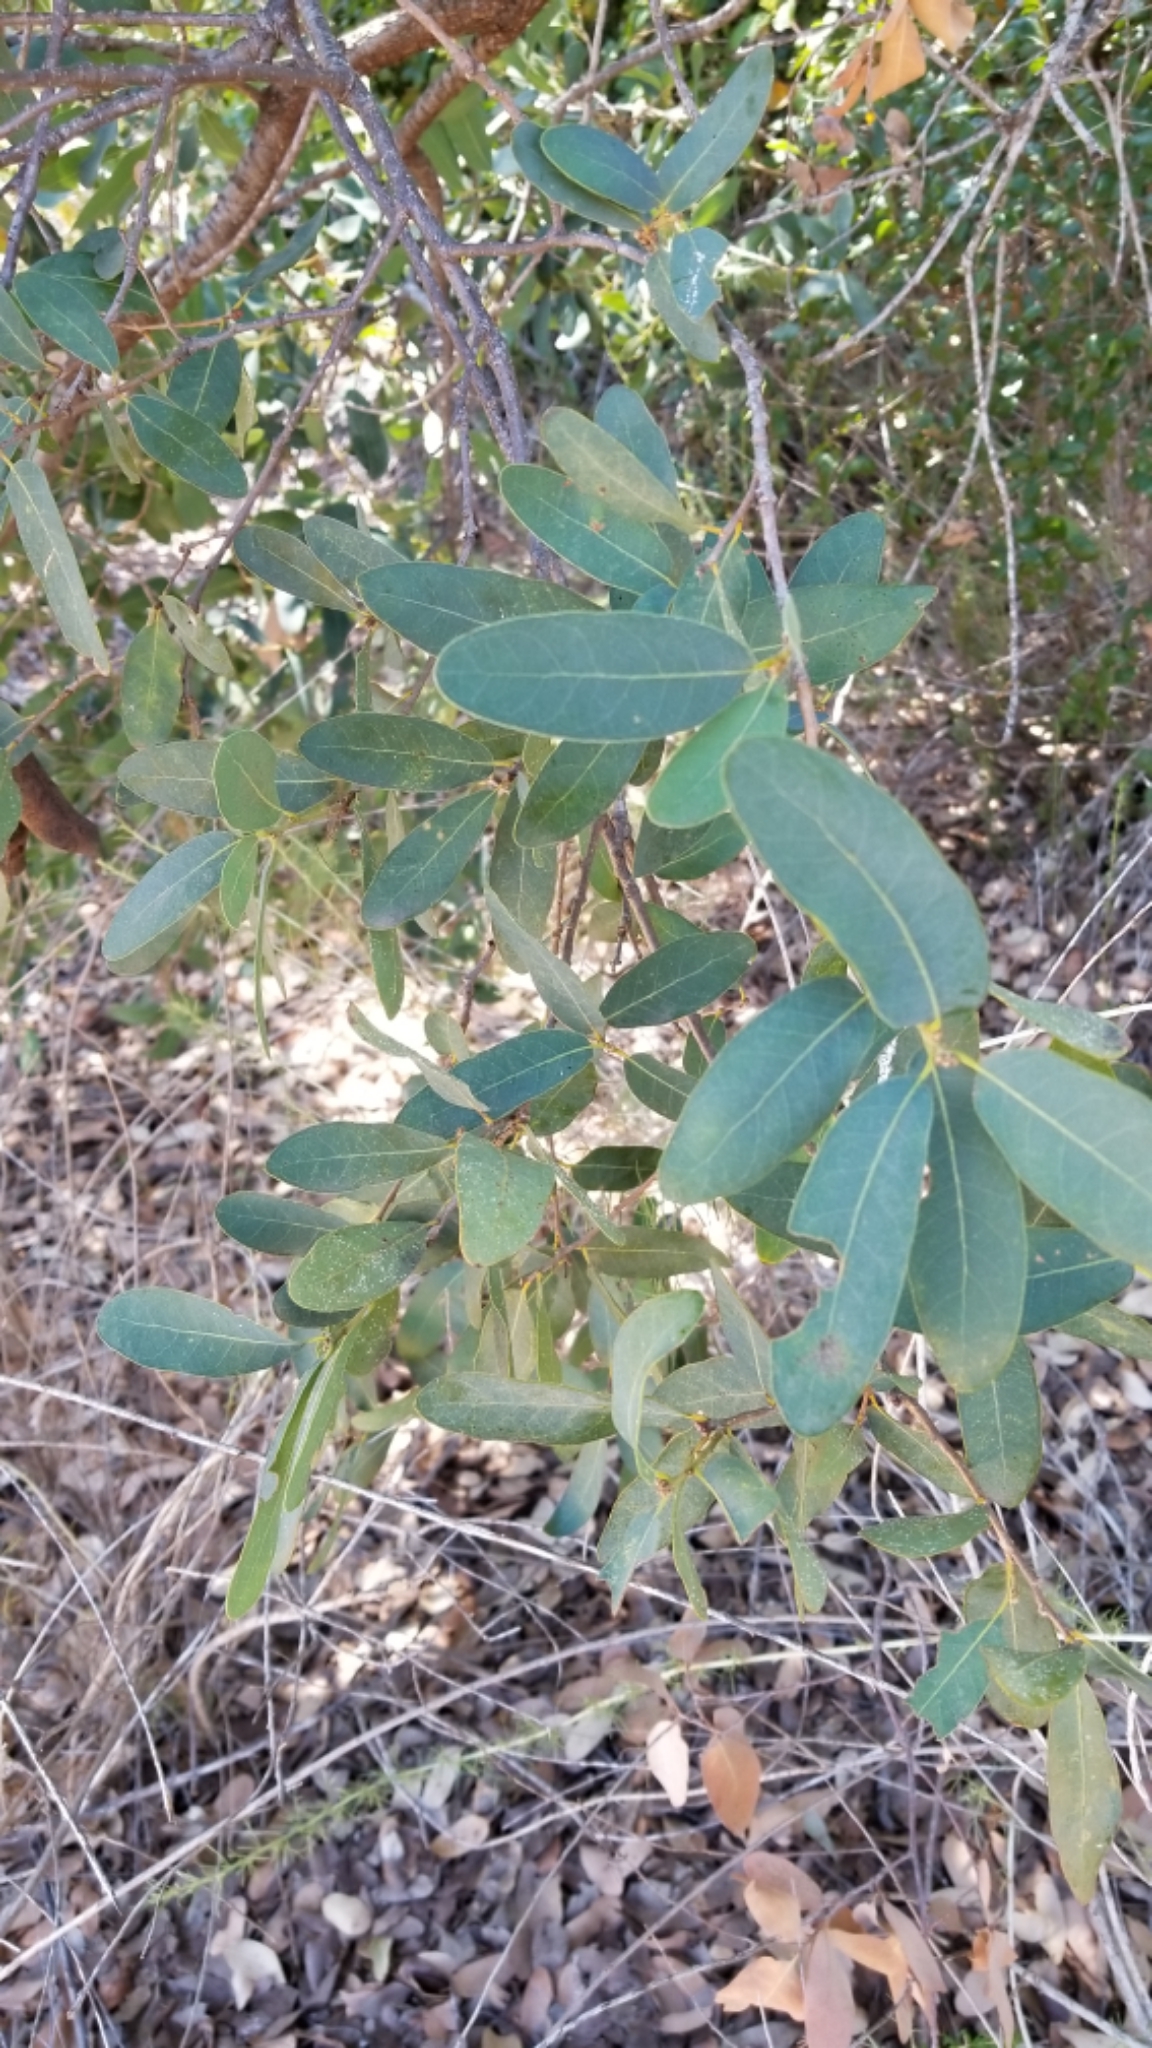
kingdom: Plantae
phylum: Tracheophyta
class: Magnoliopsida
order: Fagales
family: Fagaceae
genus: Quercus
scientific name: Quercus engelmannii
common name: Engelmann oak
